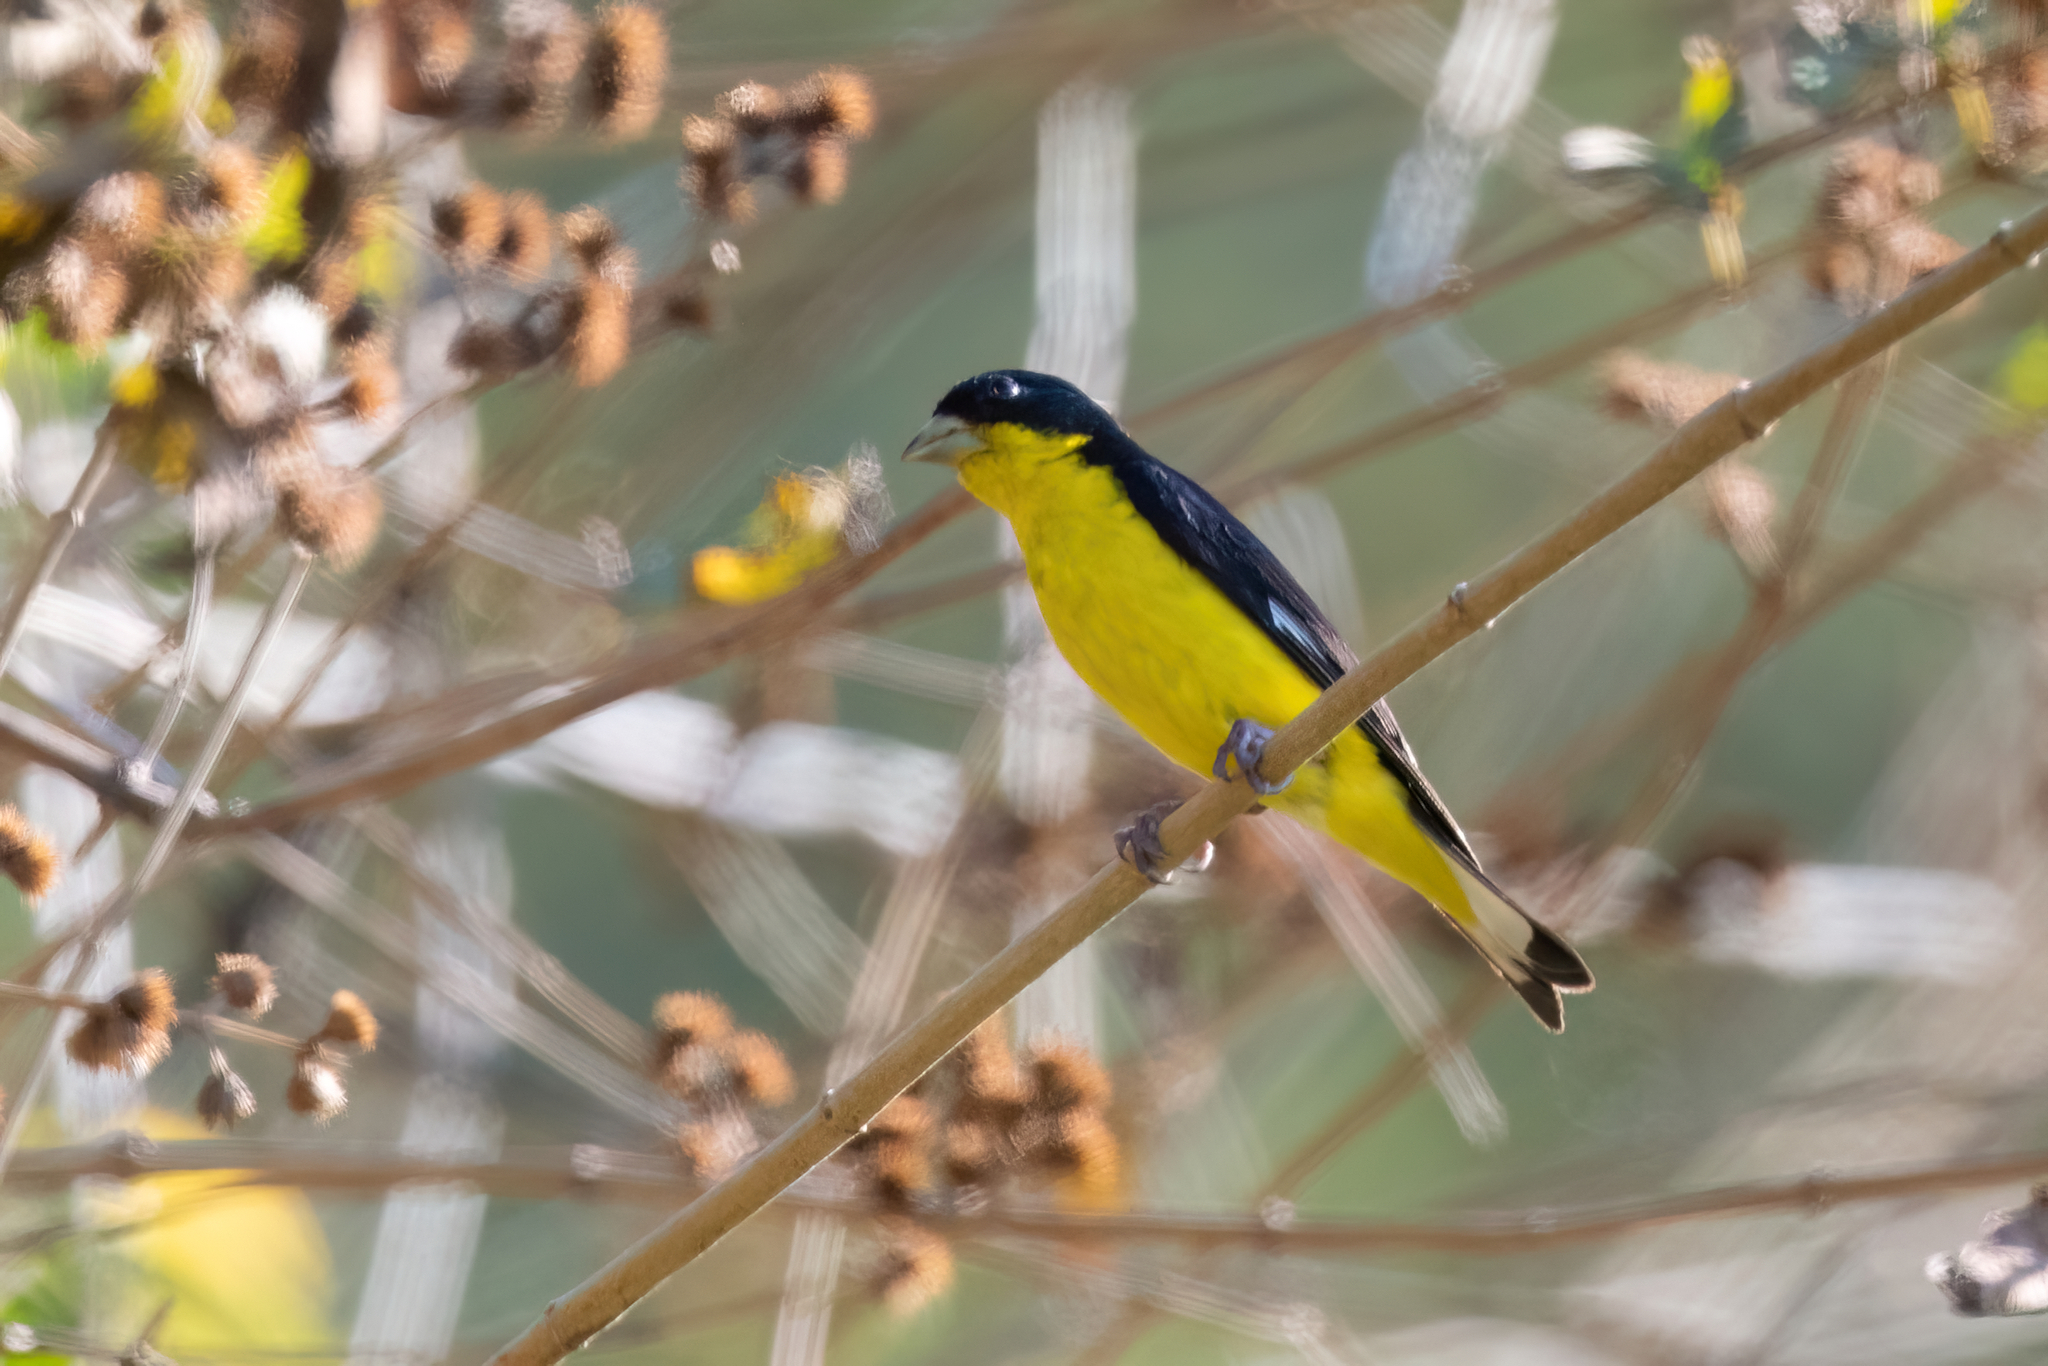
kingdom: Animalia
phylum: Chordata
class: Aves
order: Passeriformes
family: Fringillidae
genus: Spinus
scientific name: Spinus psaltria
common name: Lesser goldfinch
